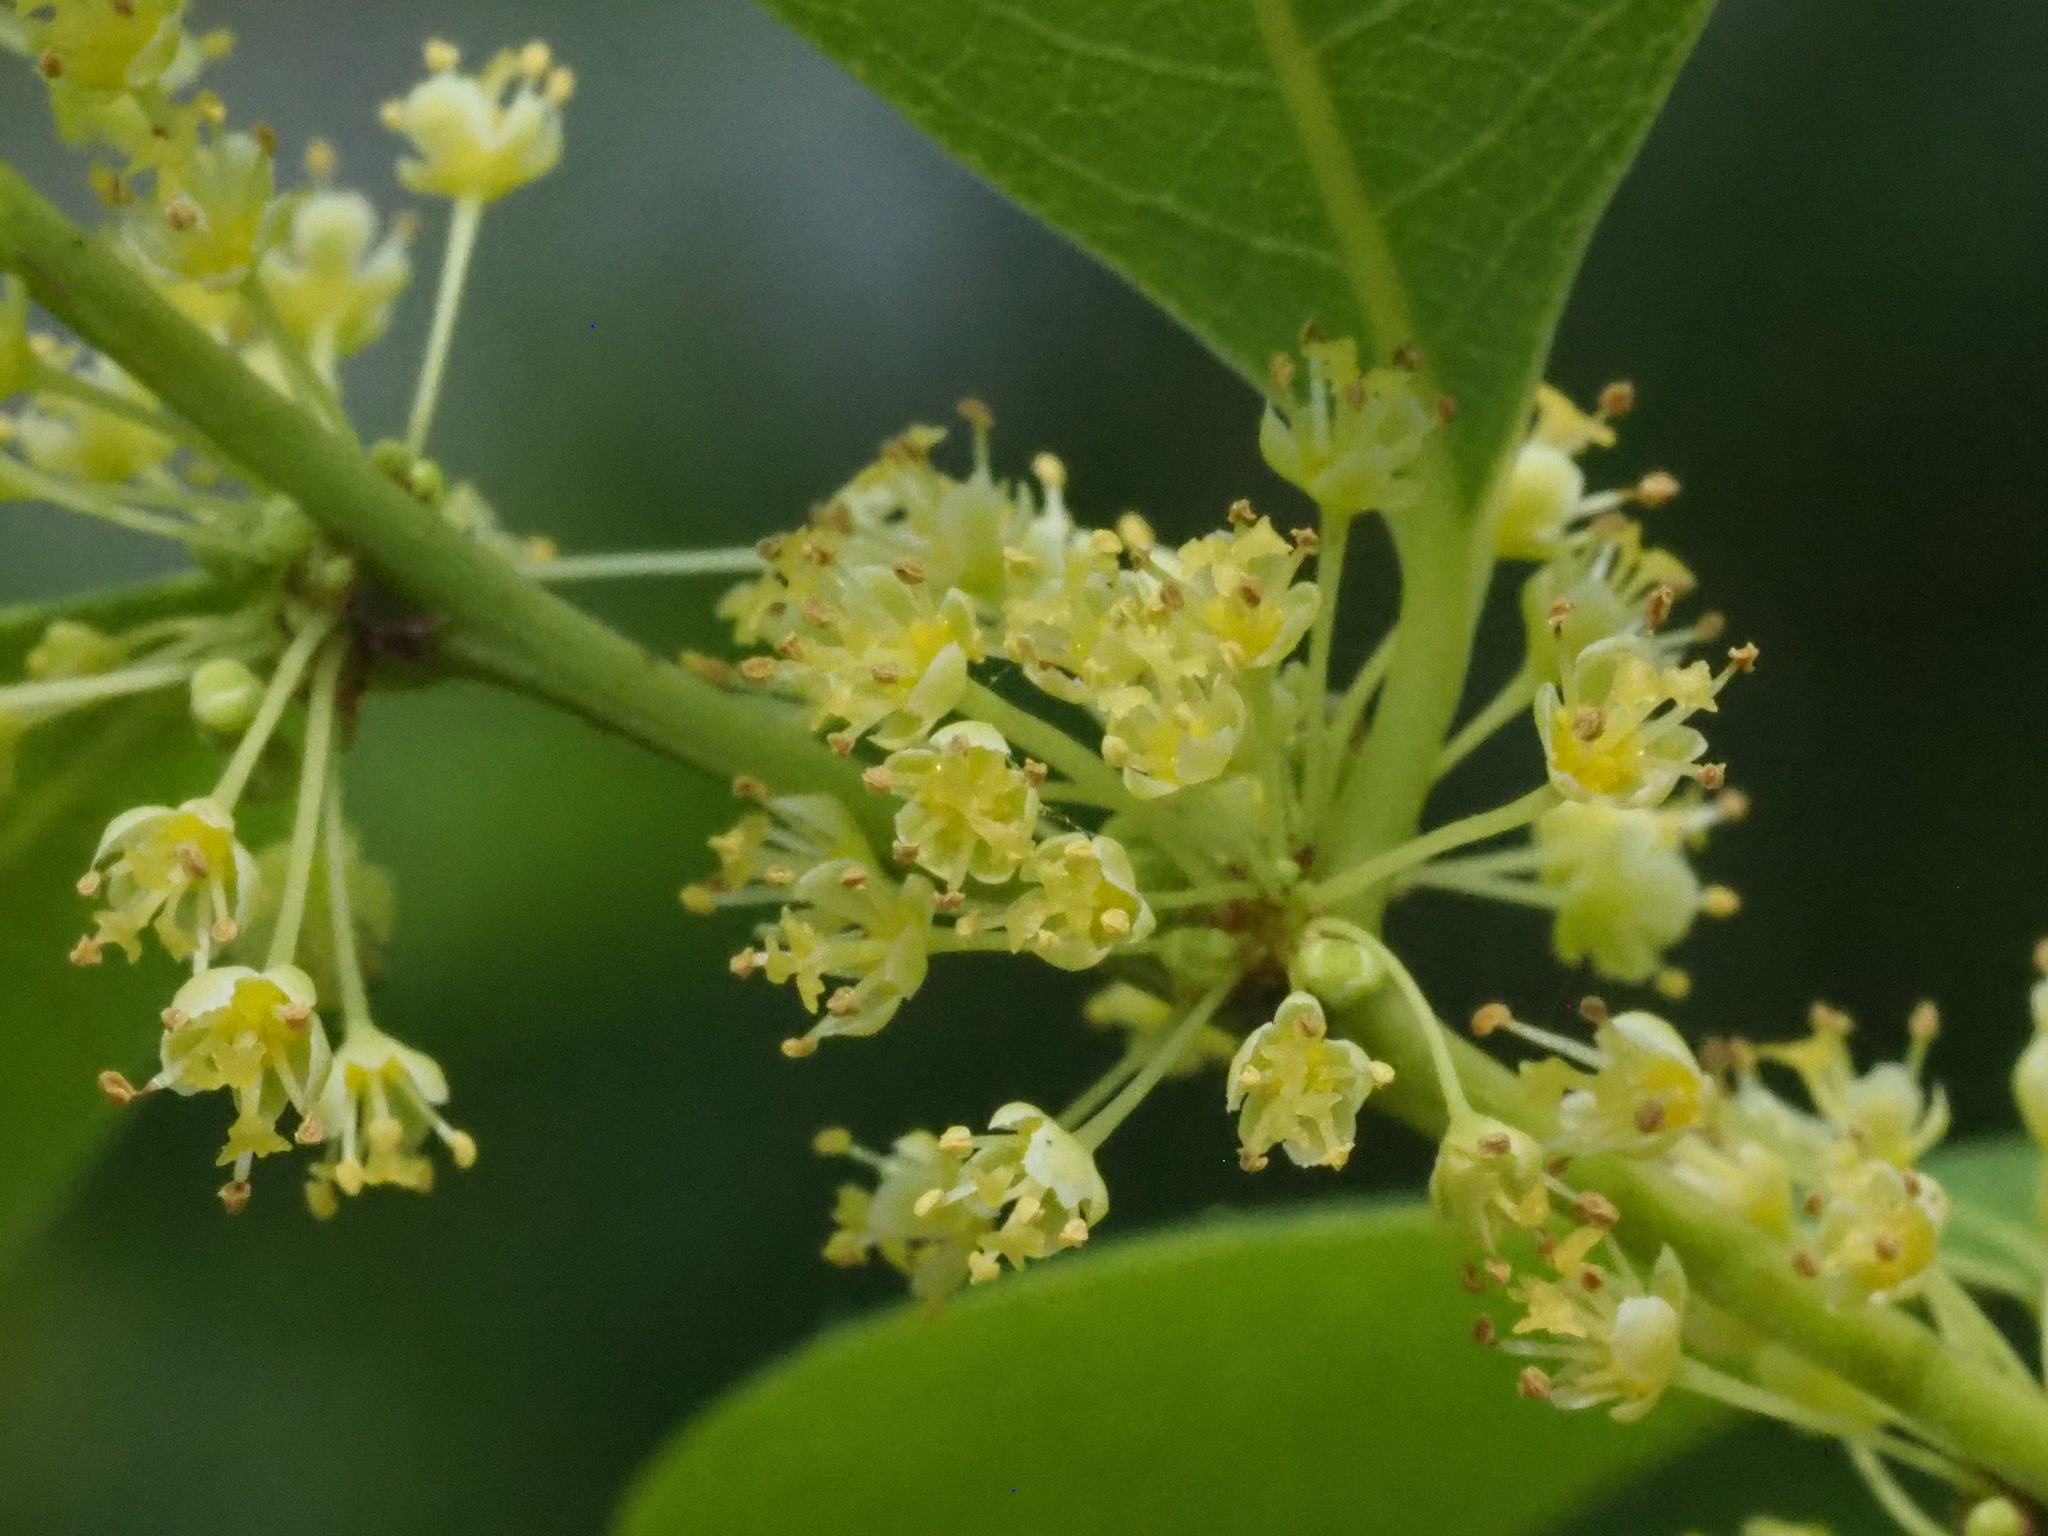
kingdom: Plantae
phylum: Tracheophyta
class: Magnoliopsida
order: Malpighiales
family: Phyllanthaceae
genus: Flueggea
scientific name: Flueggea virosa
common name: Common bushweed
